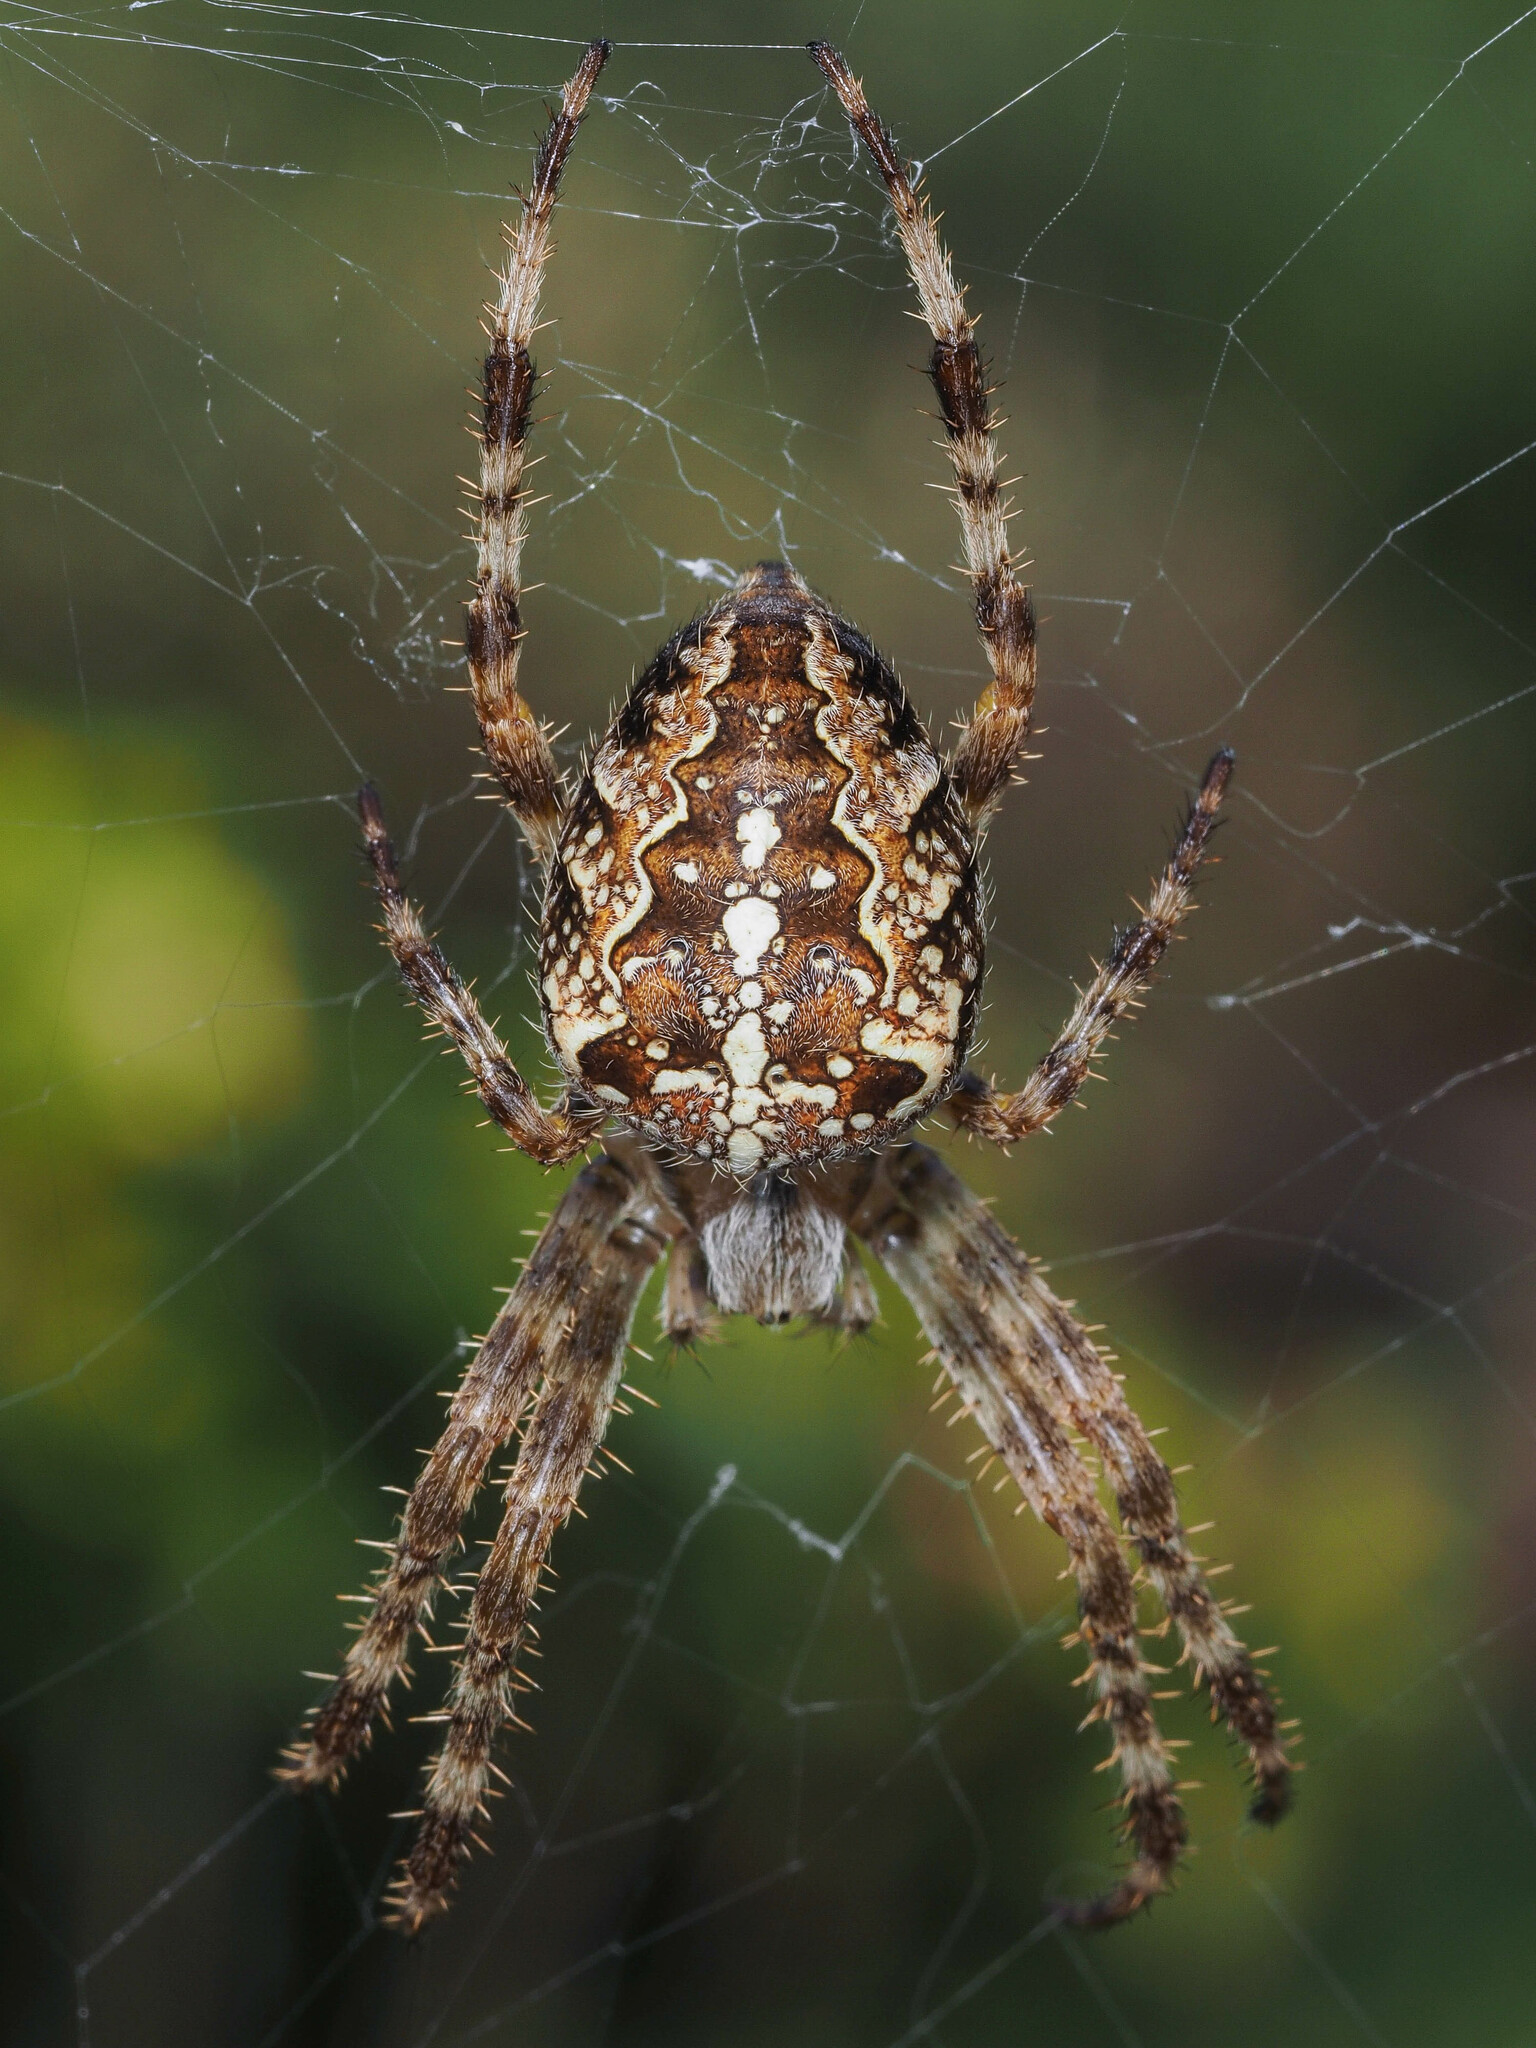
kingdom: Animalia
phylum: Arthropoda
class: Arachnida
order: Araneae
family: Araneidae
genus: Araneus
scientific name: Araneus diadematus
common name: Cross orbweaver
